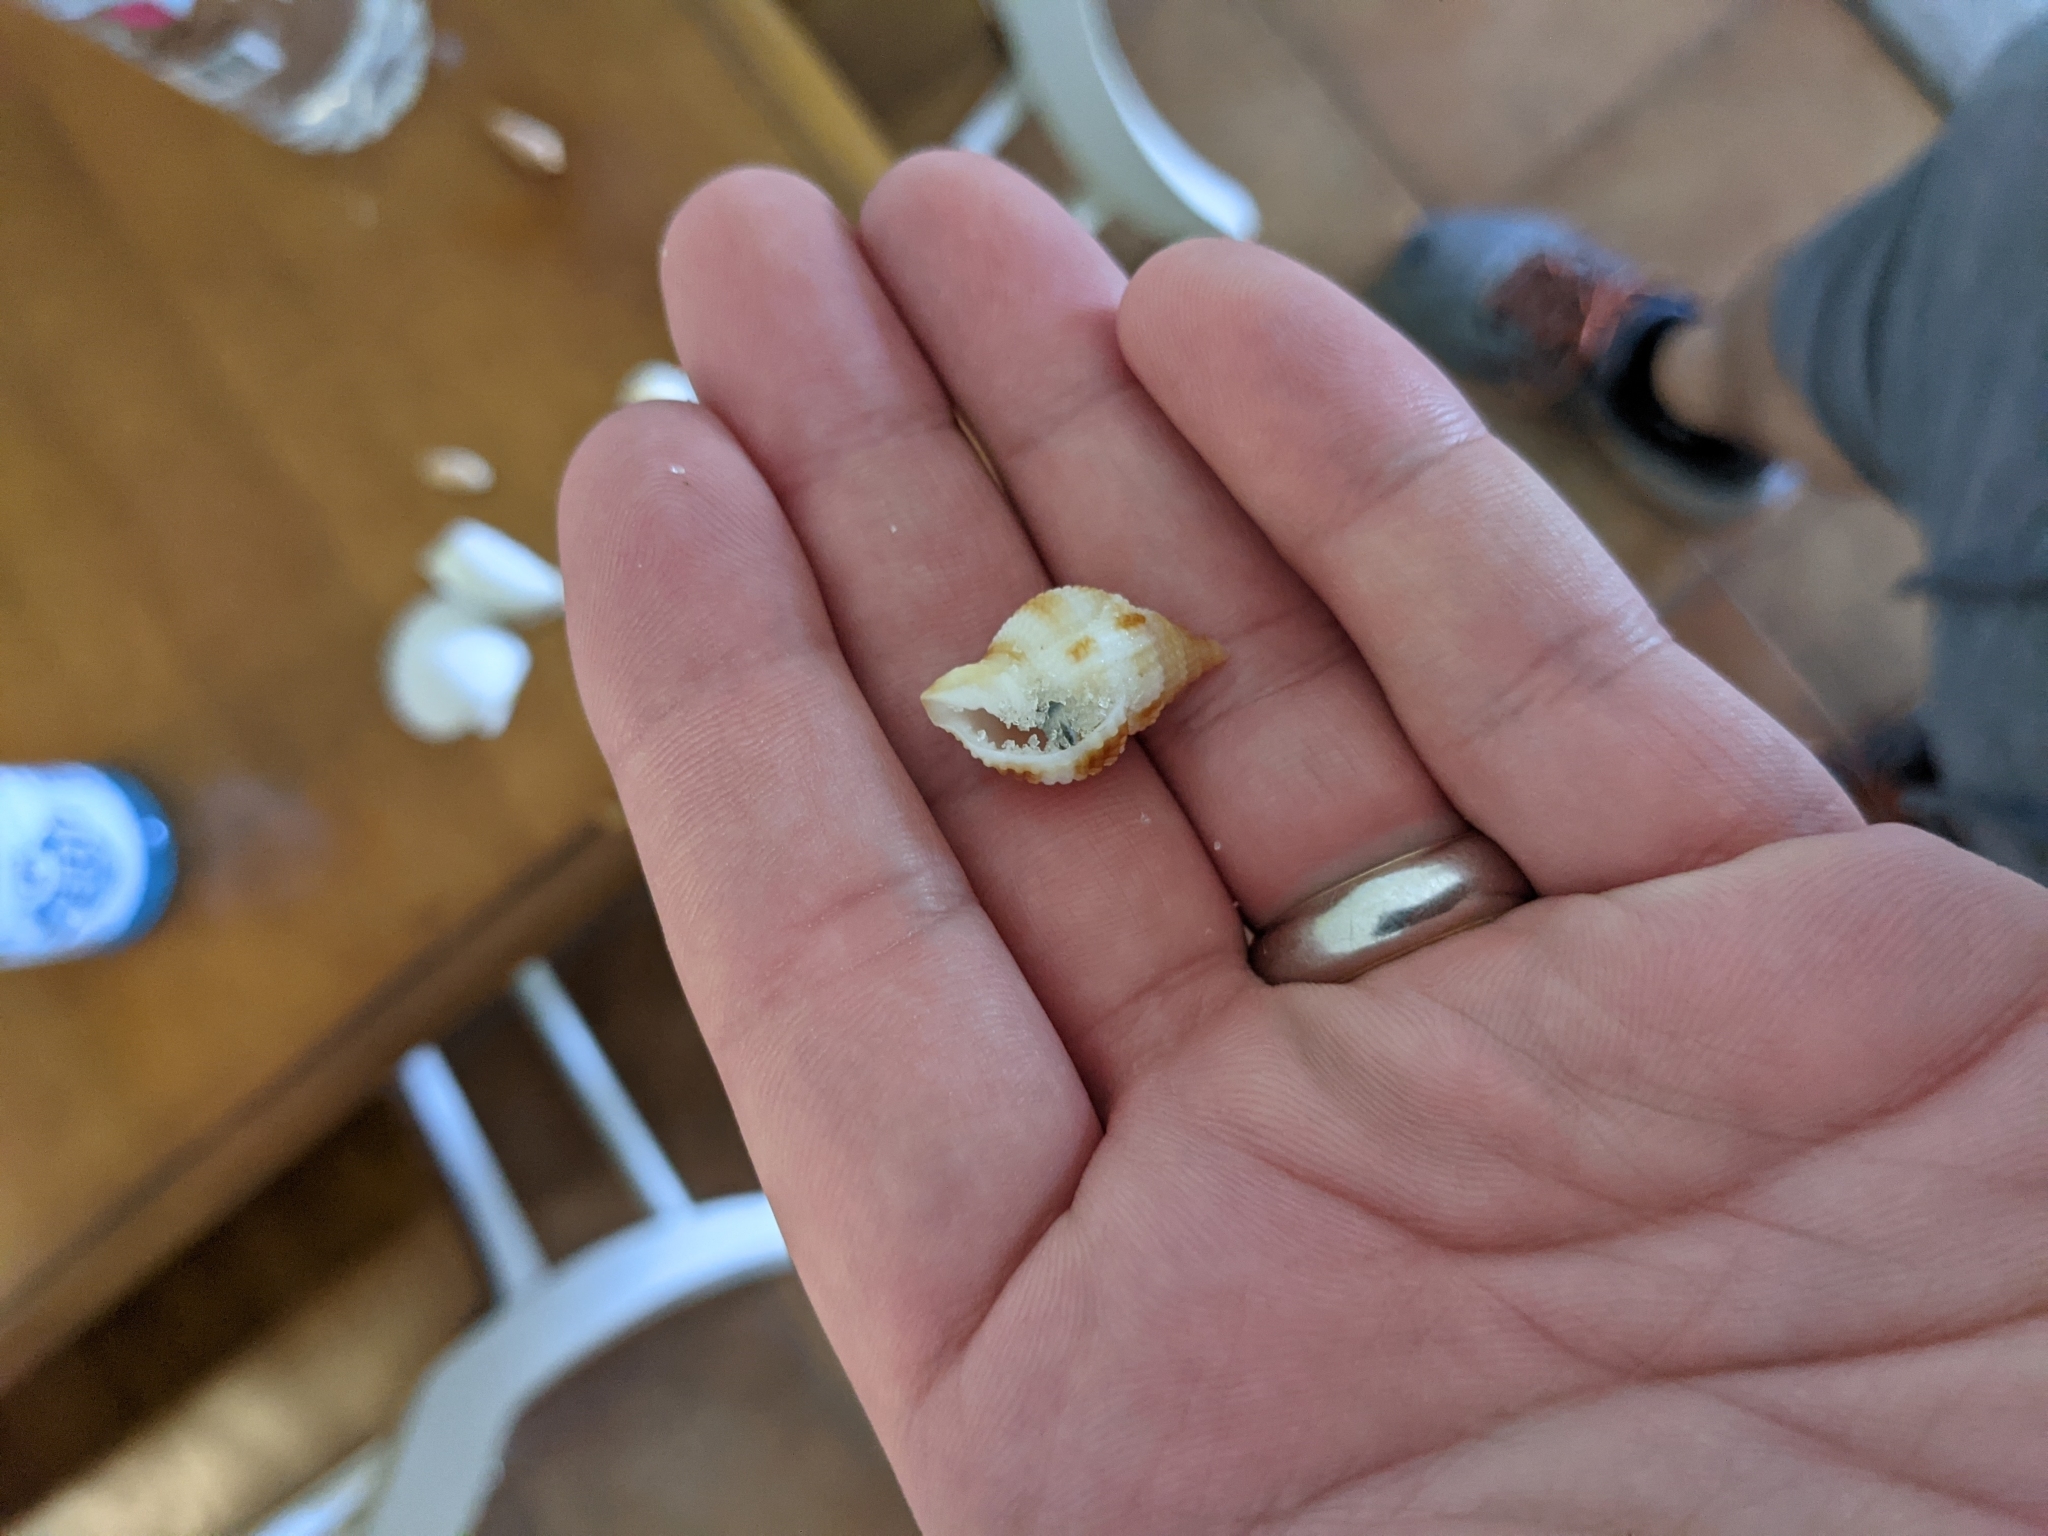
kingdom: Animalia
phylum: Mollusca
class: Gastropoda
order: Neogastropoda
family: Cancellariidae
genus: Cancellaria
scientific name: Cancellaria reticulata
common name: Common nutmeg
